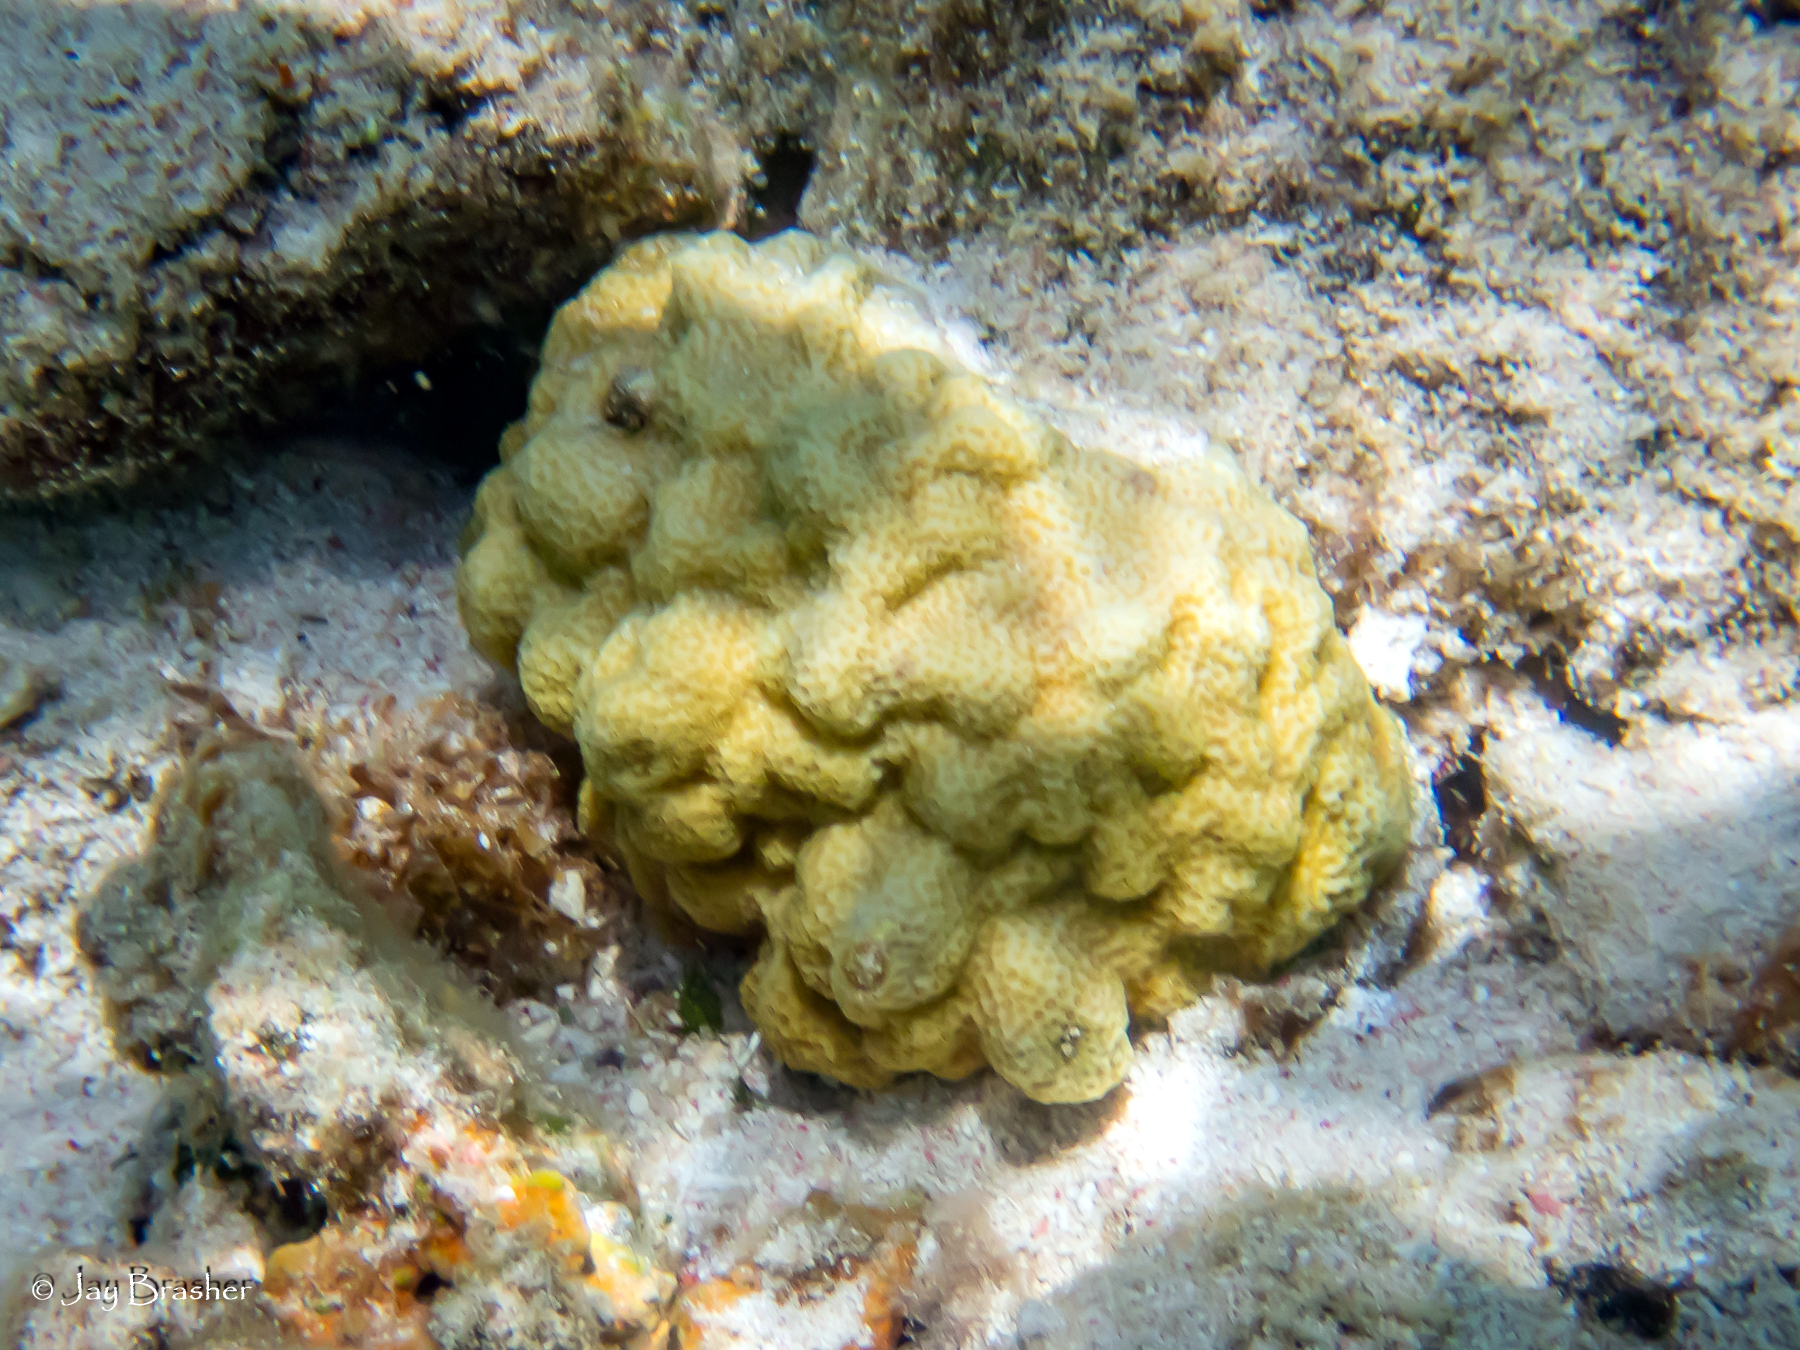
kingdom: Animalia
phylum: Cnidaria
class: Anthozoa
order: Scleractinia
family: Poritidae
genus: Porites
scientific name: Porites astreoides
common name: Mustard hill coral
